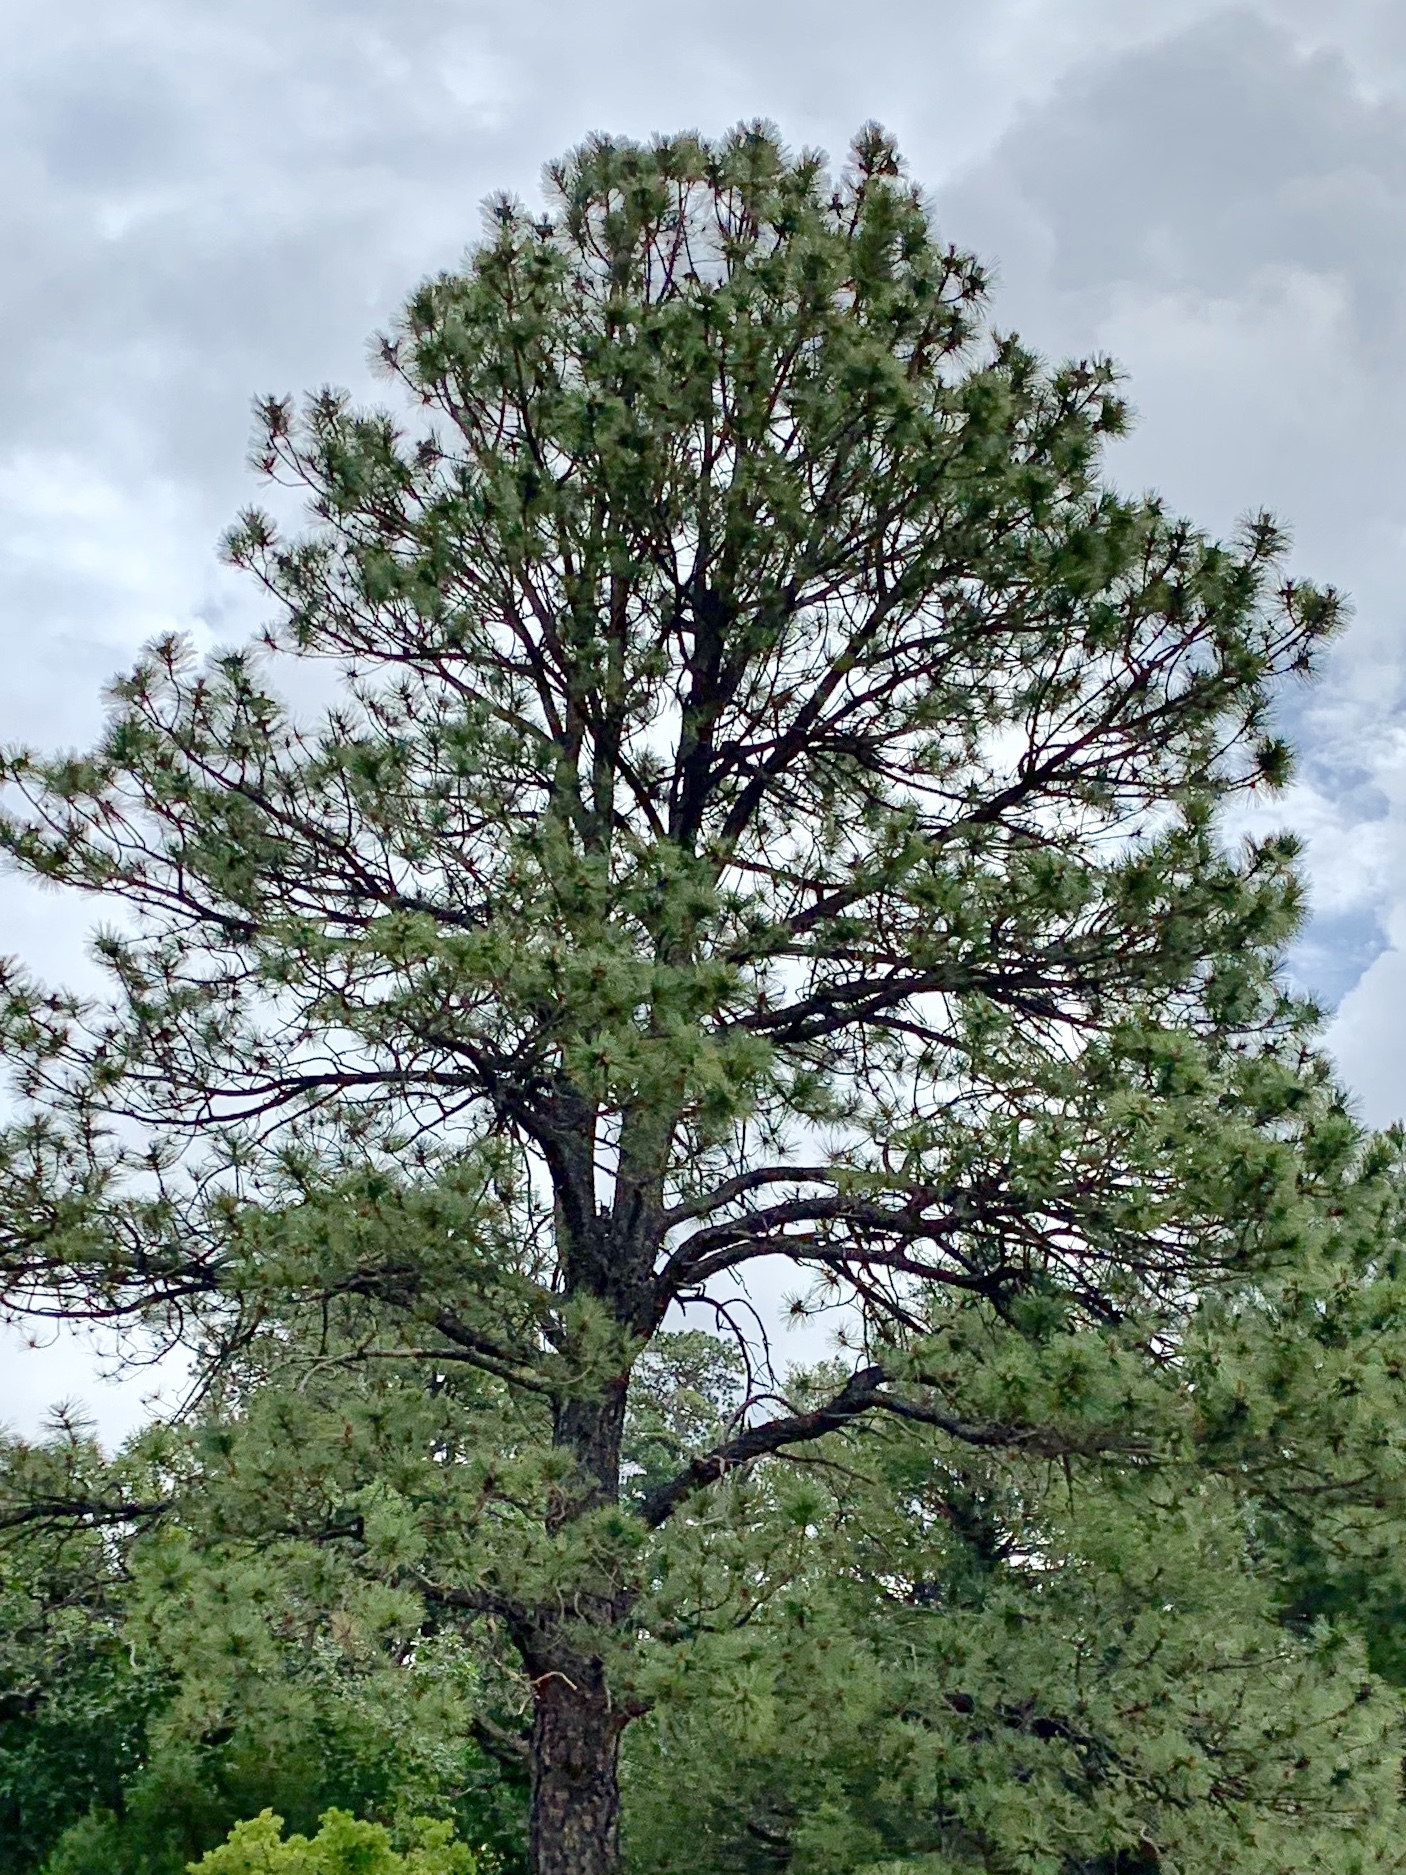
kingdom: Plantae
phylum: Tracheophyta
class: Pinopsida
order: Pinales
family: Pinaceae
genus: Pinus
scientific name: Pinus ponderosa
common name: Western yellow-pine
